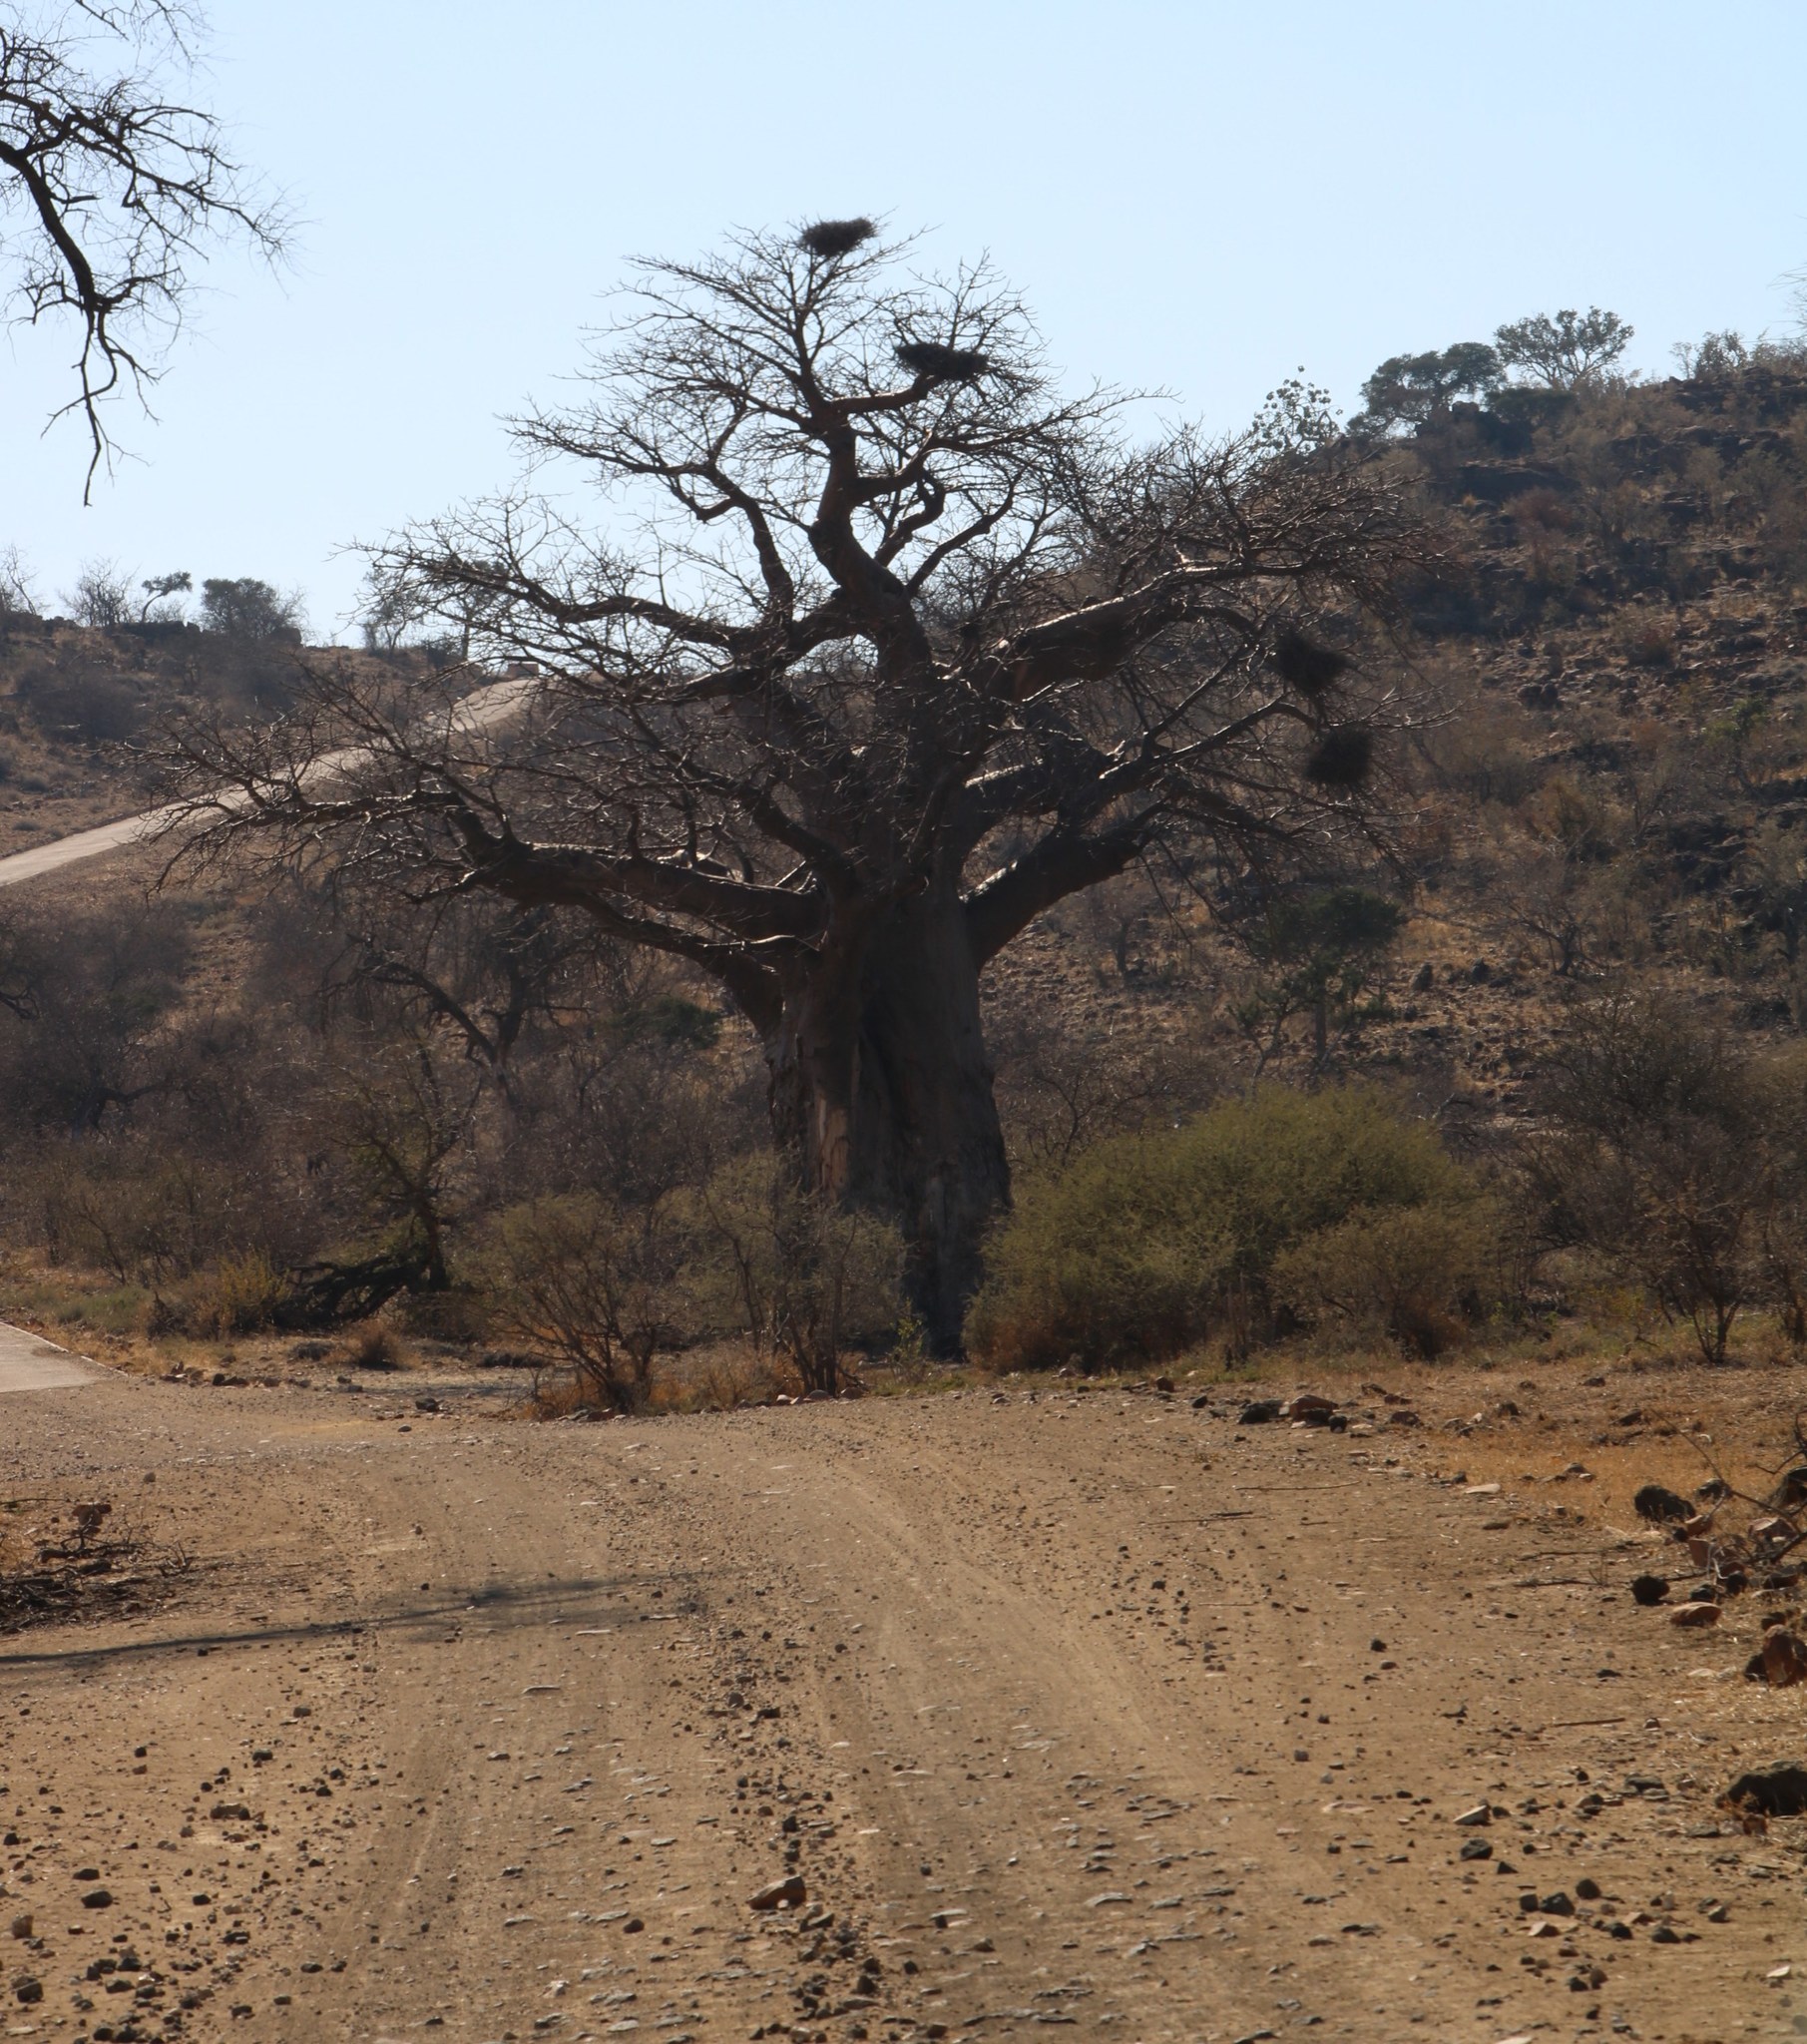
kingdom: Plantae
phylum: Tracheophyta
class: Magnoliopsida
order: Malvales
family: Malvaceae
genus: Adansonia
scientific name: Adansonia digitata
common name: Dead-rat-tree
